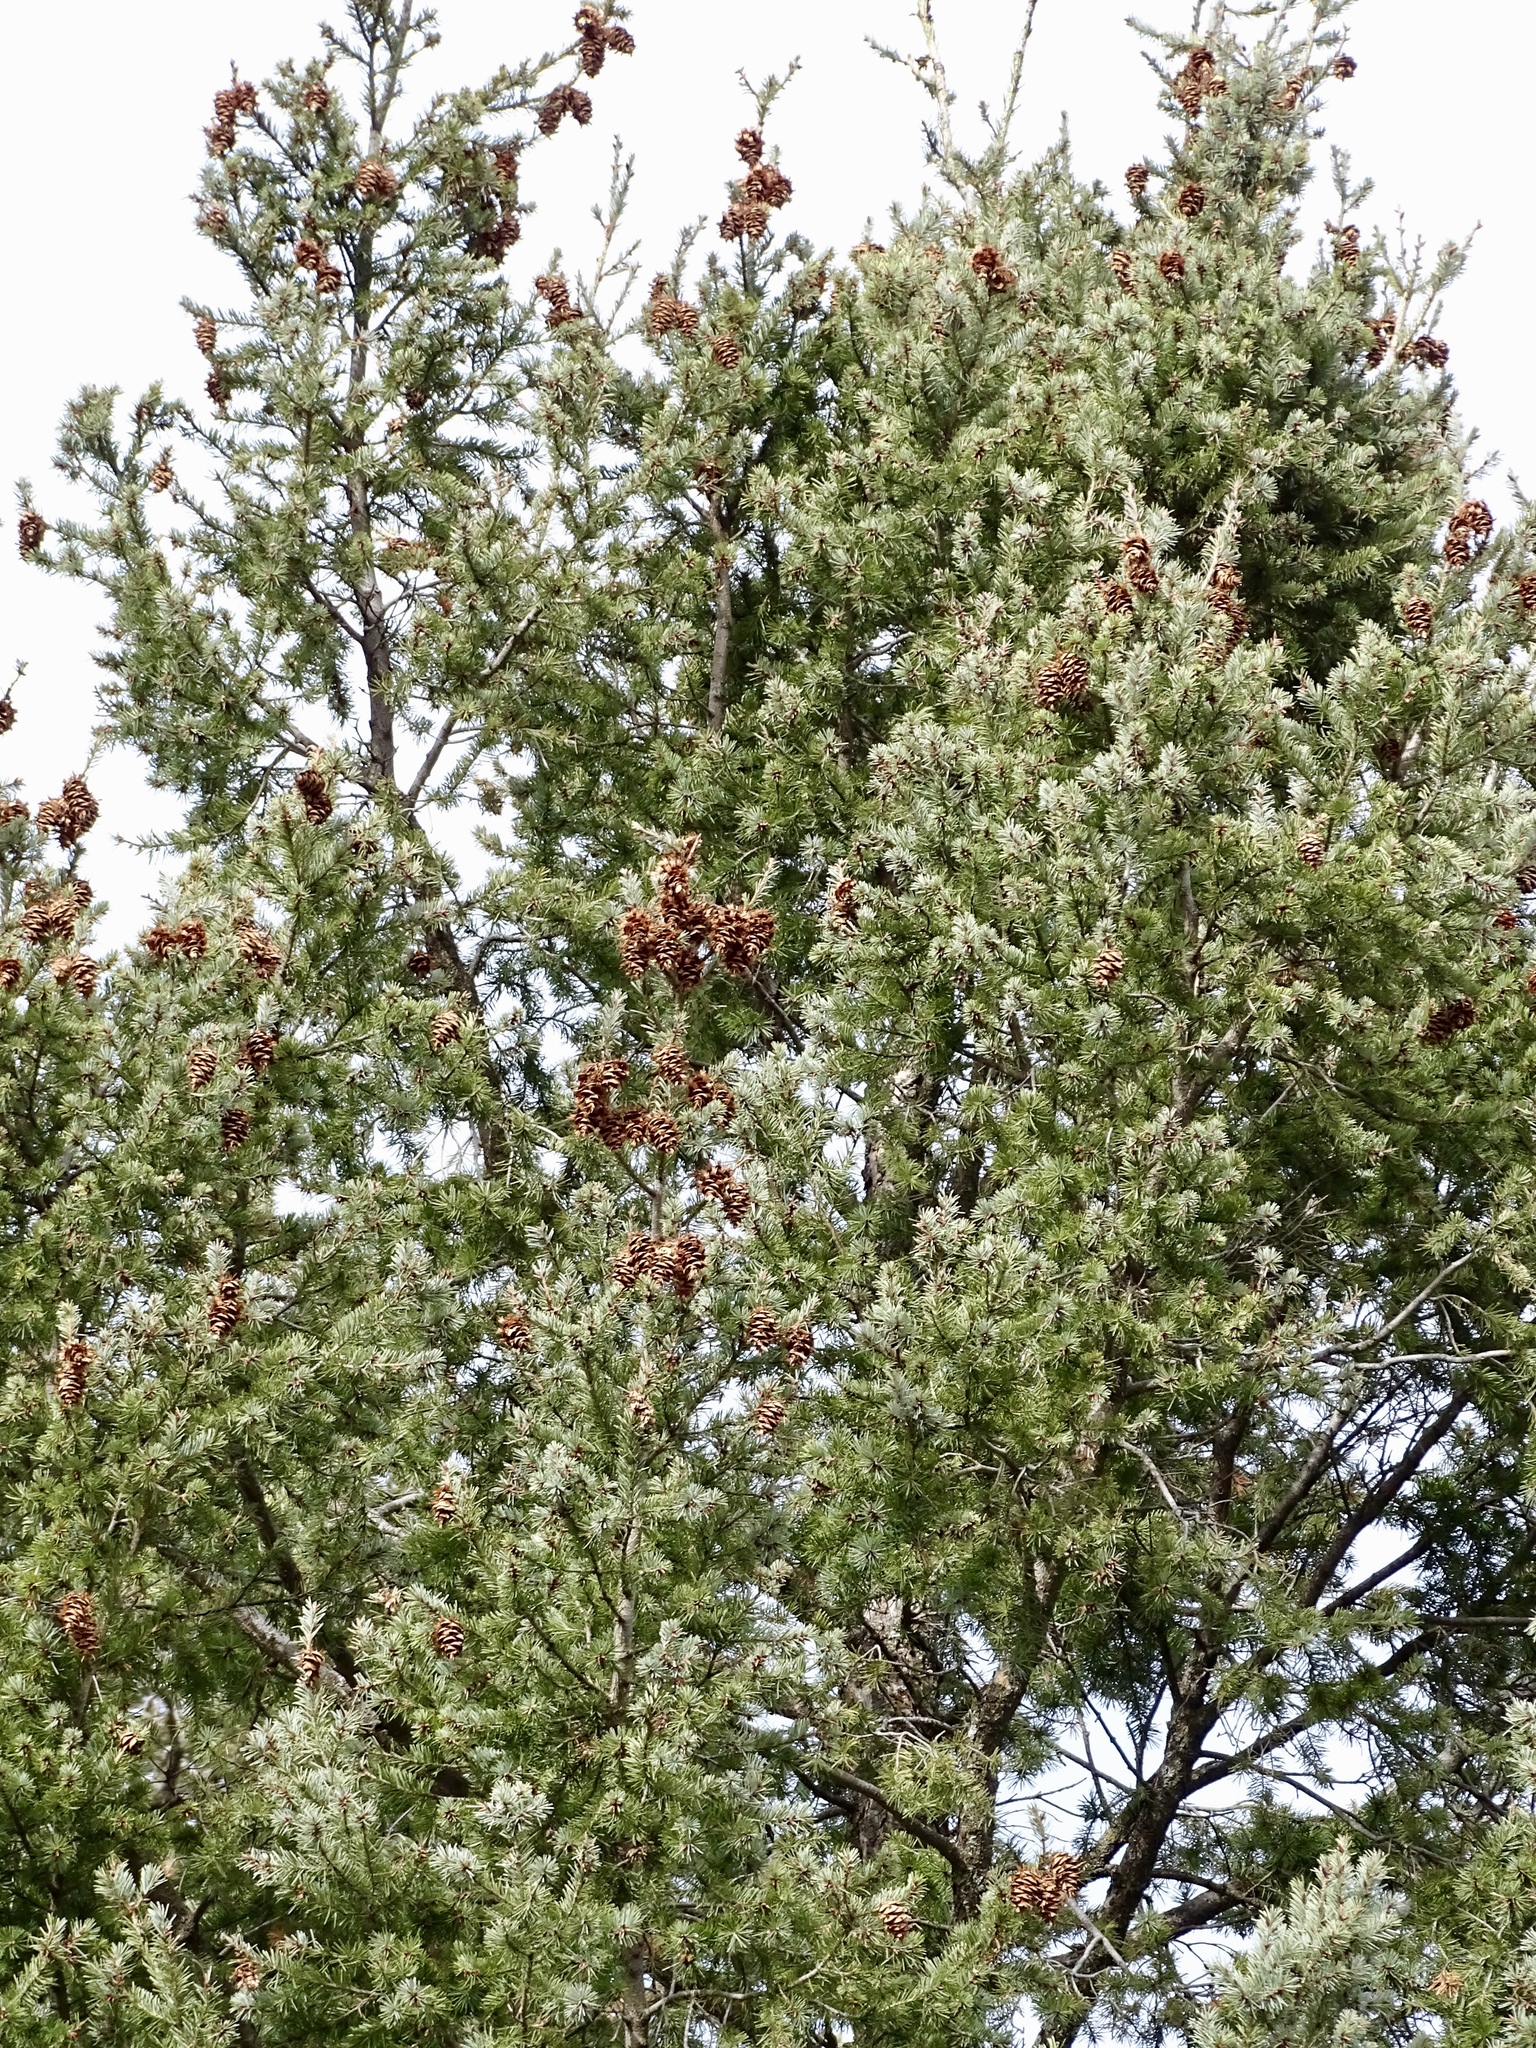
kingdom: Plantae
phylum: Tracheophyta
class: Pinopsida
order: Pinales
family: Pinaceae
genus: Pseudotsuga
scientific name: Pseudotsuga menziesii
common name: Douglas fir
